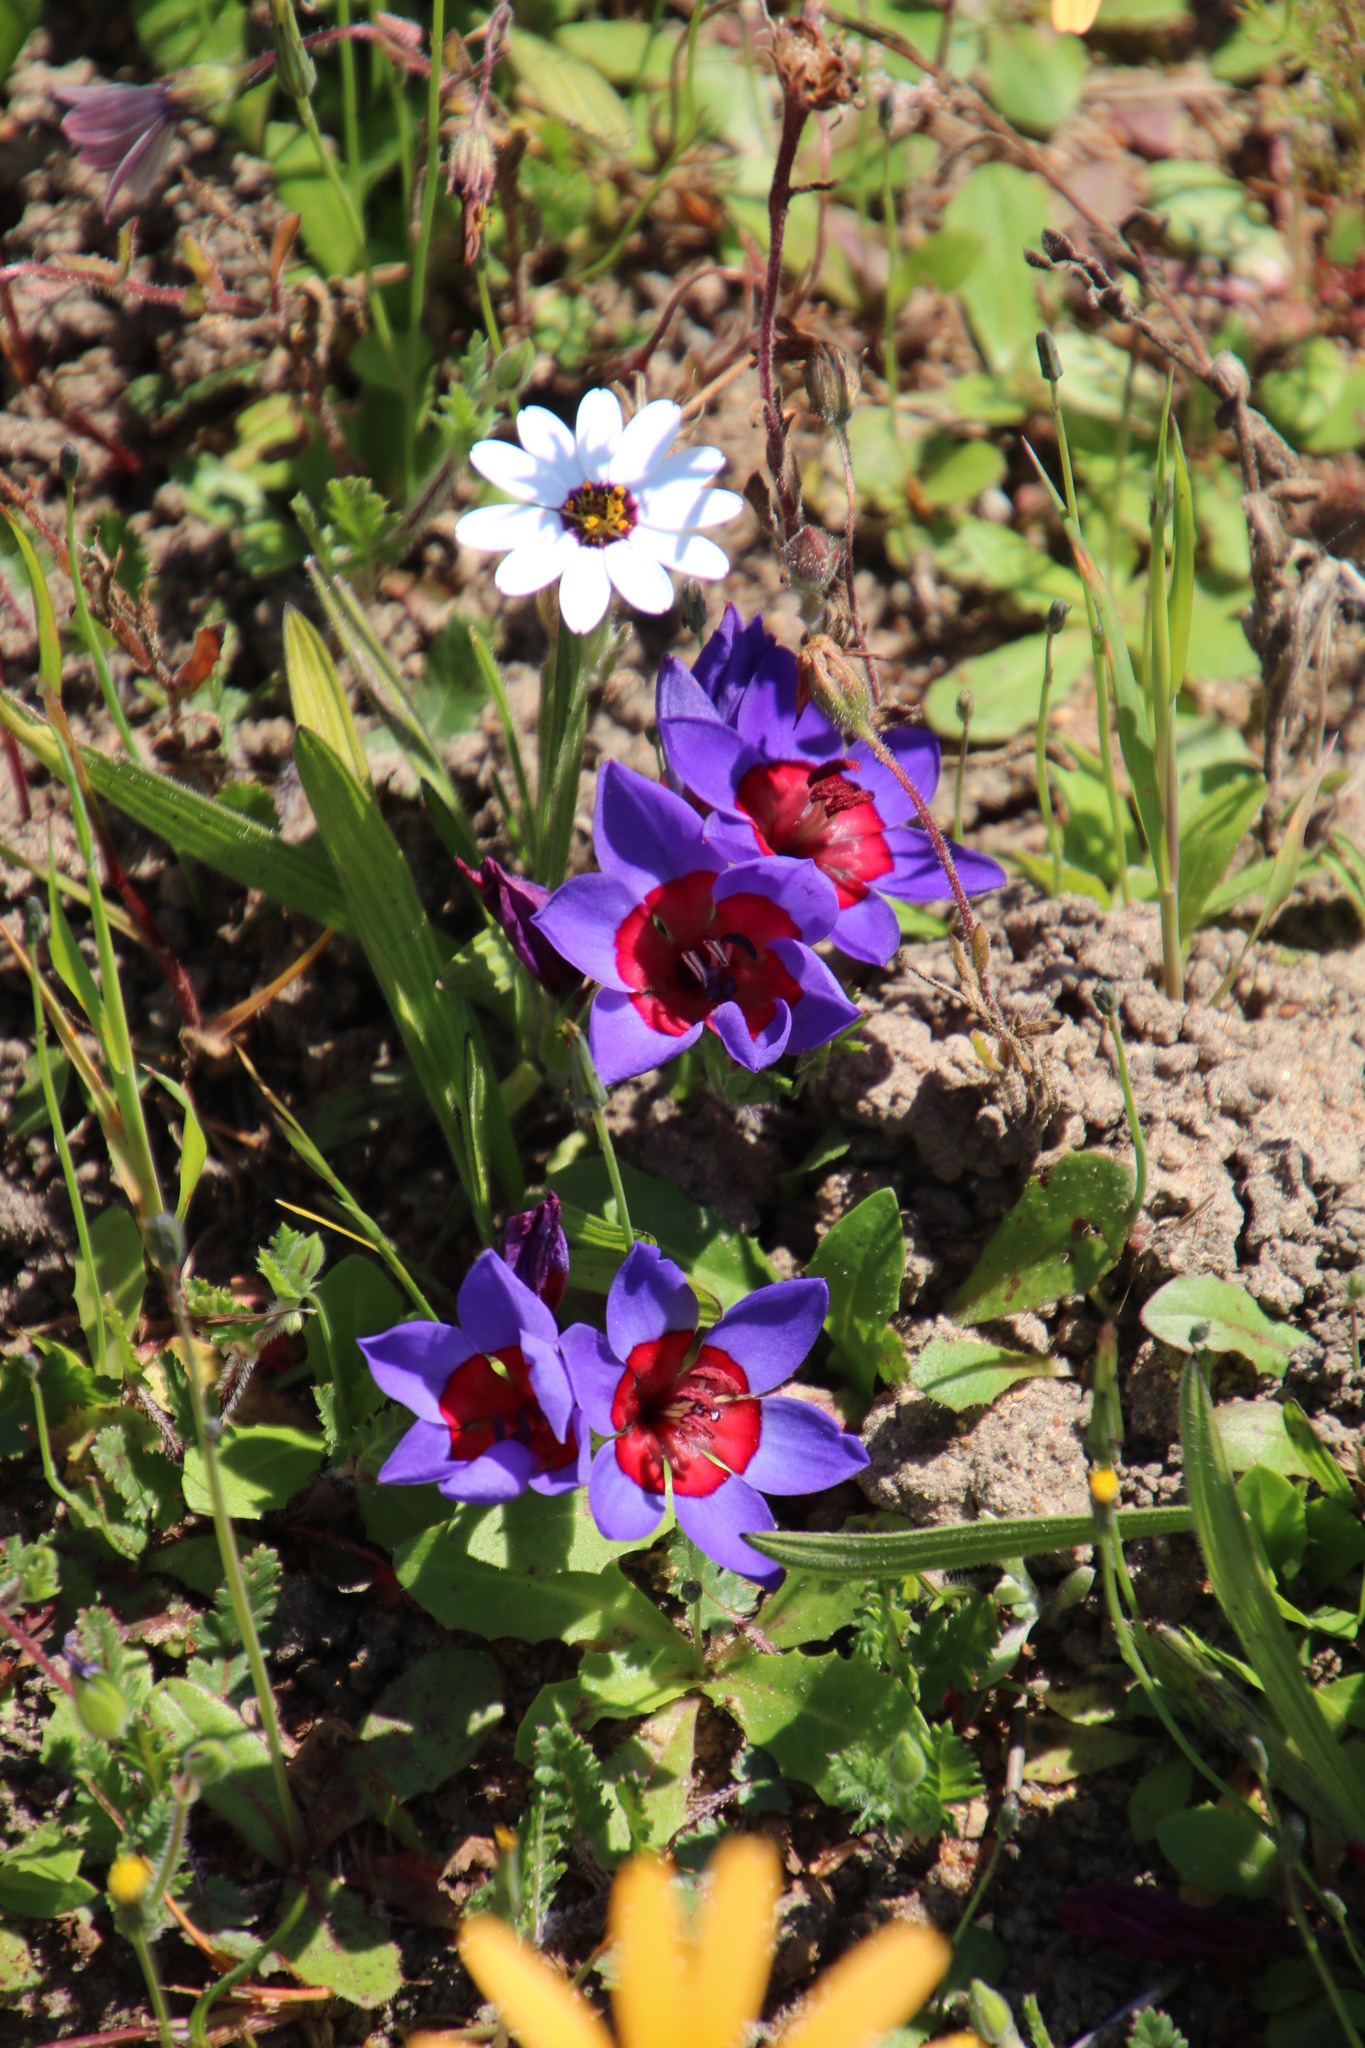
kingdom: Plantae
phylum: Tracheophyta
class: Liliopsida
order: Asparagales
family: Iridaceae
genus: Babiana
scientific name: Babiana rubrocyanea
